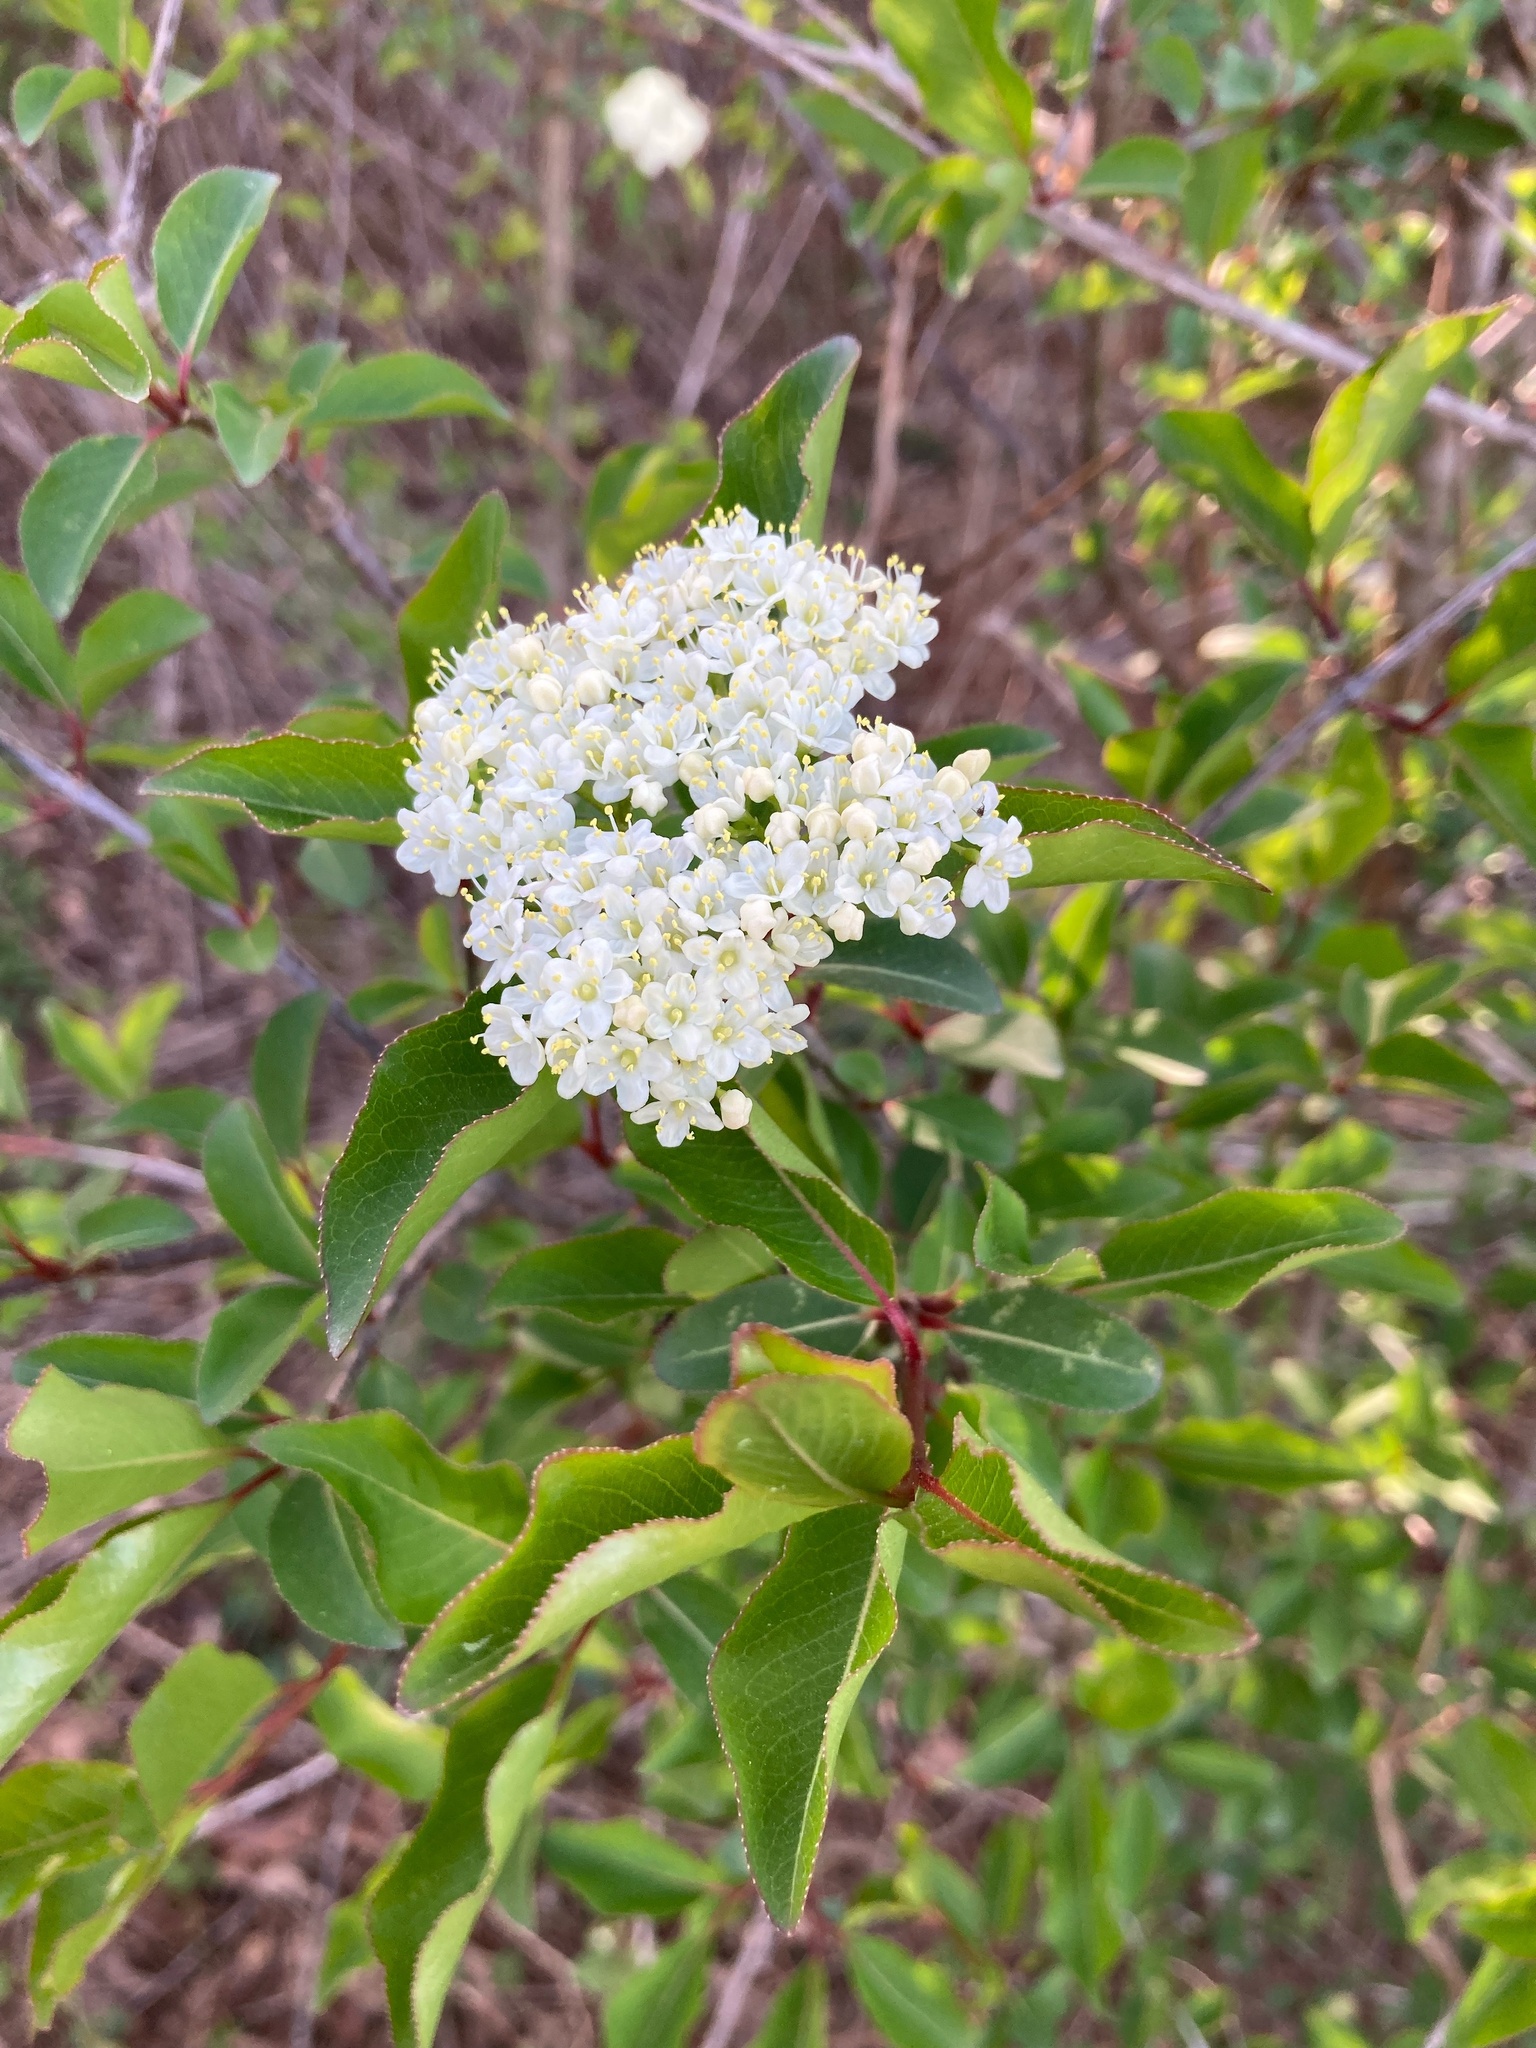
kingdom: Plantae
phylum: Tracheophyta
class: Magnoliopsida
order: Dipsacales
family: Viburnaceae
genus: Viburnum
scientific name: Viburnum prunifolium
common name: Black haw
